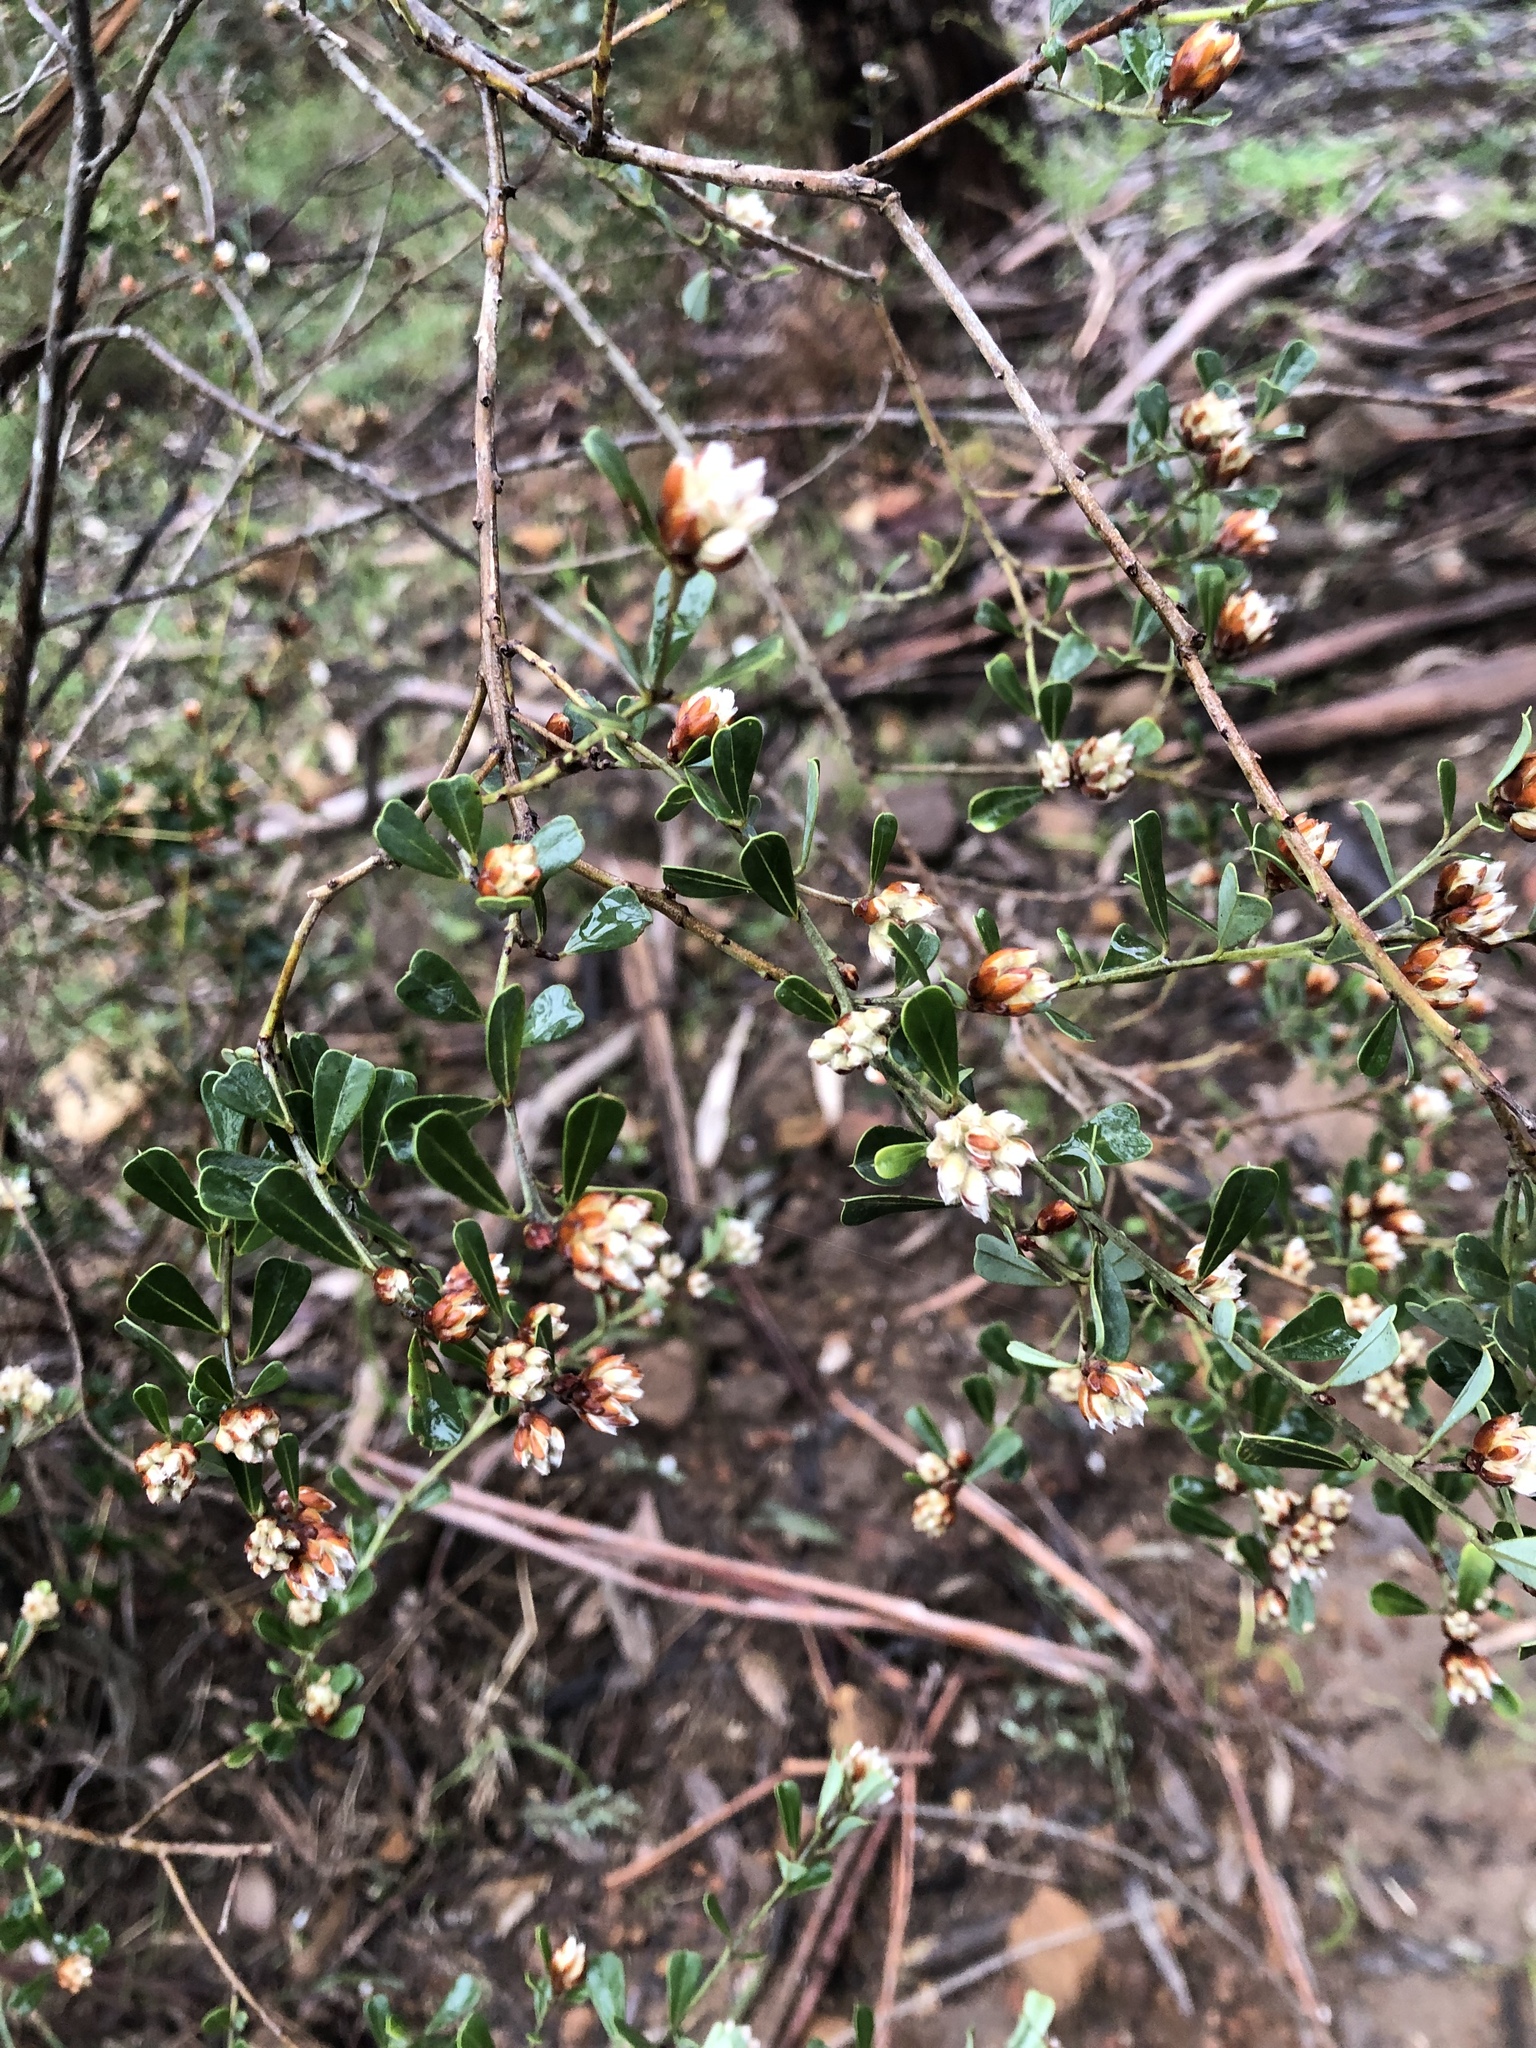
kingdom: Plantae
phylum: Tracheophyta
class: Magnoliopsida
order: Fabales
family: Fabaceae
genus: Pultenaea
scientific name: Pultenaea daphnoides
